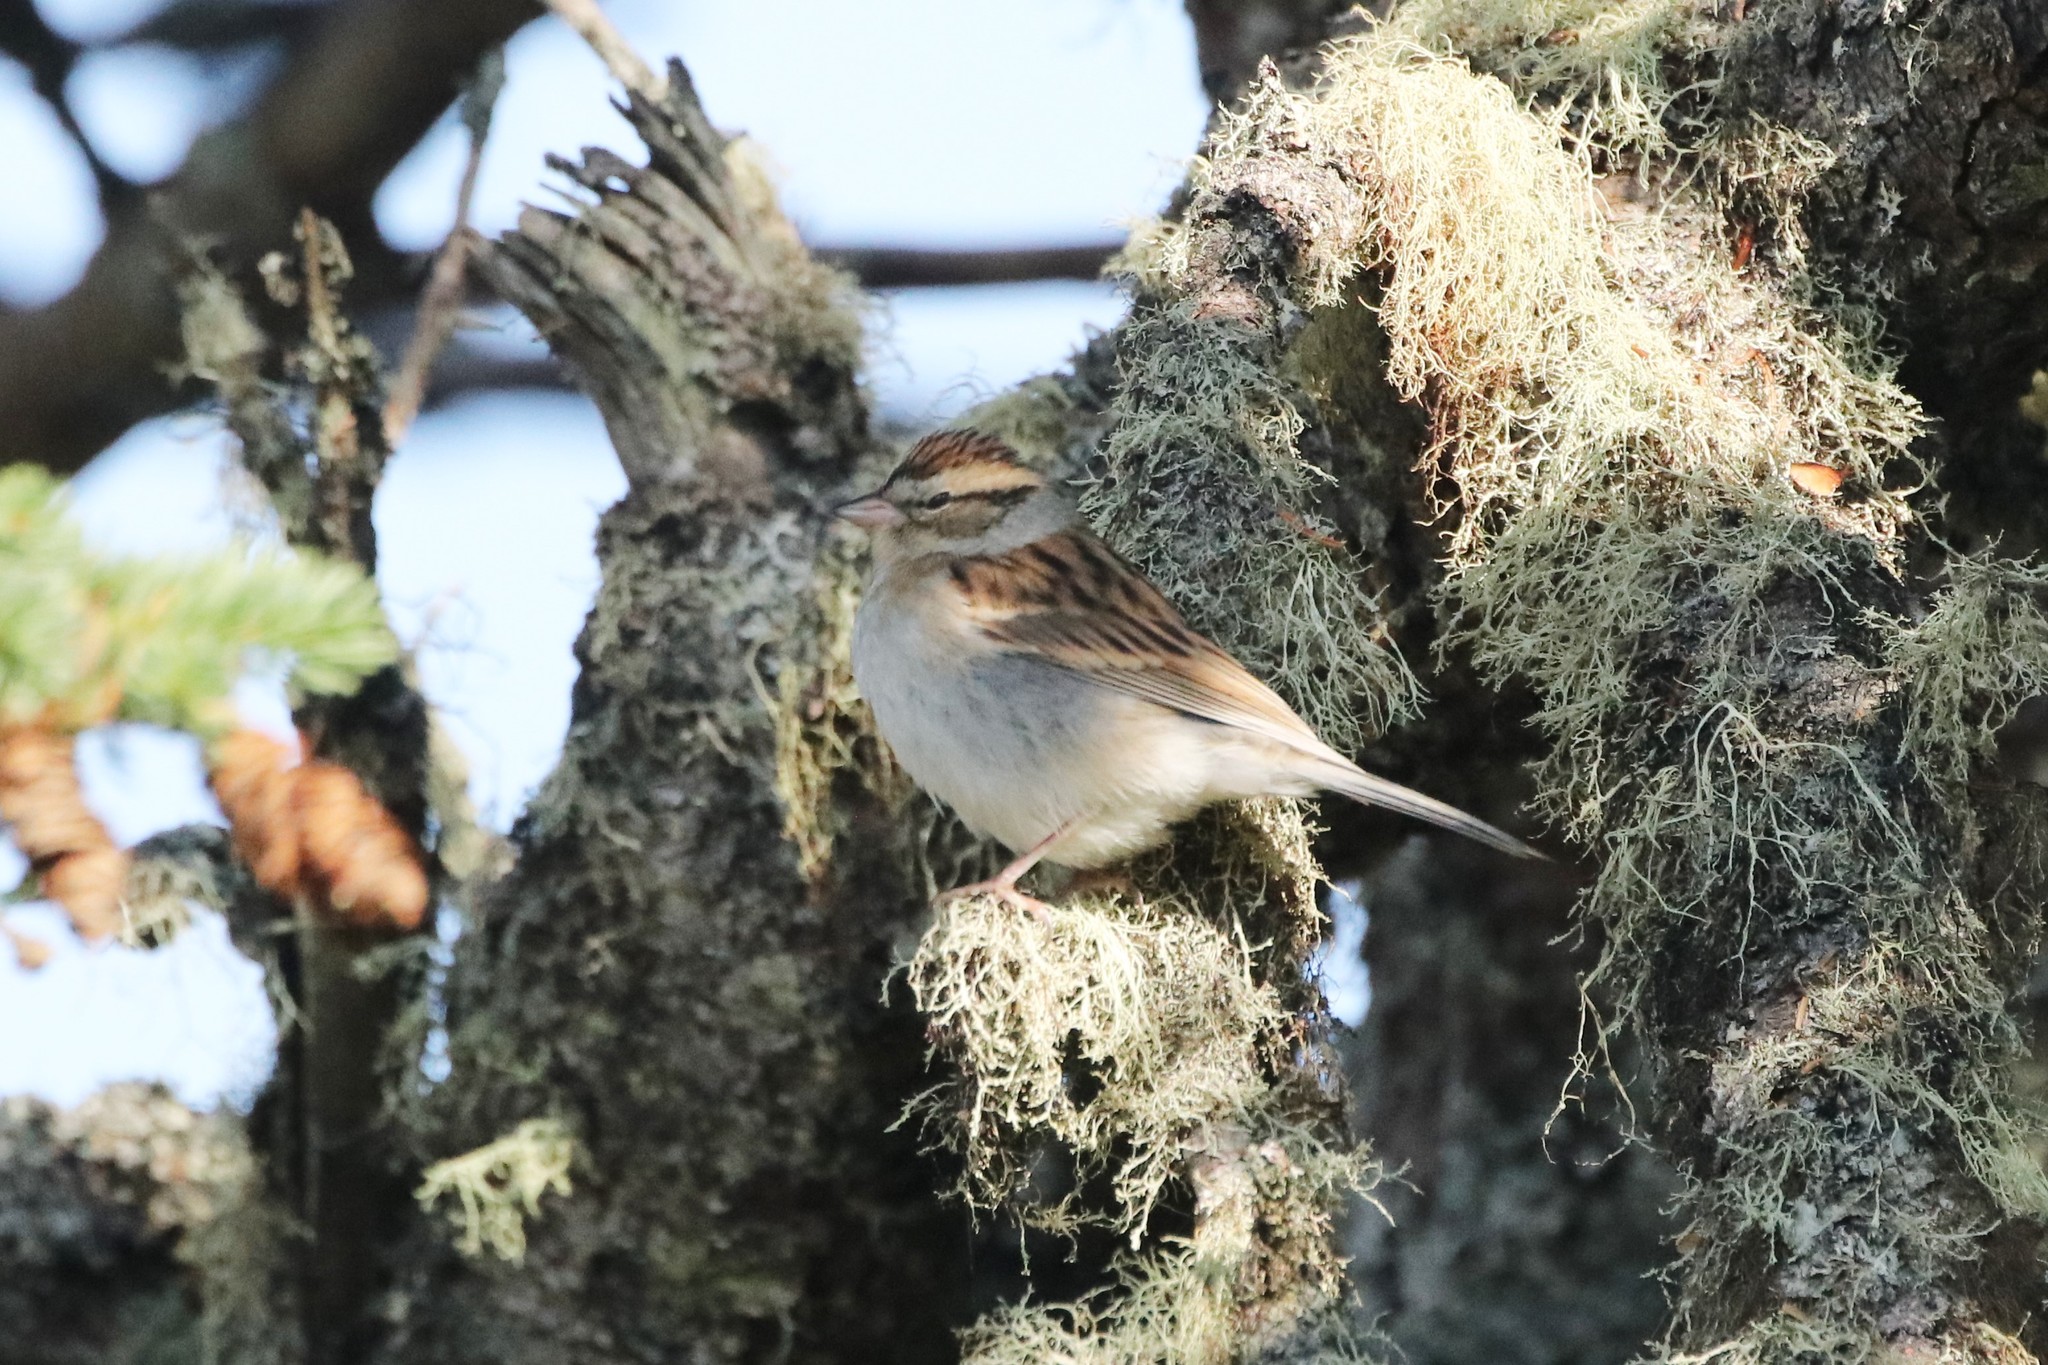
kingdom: Animalia
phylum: Chordata
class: Aves
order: Passeriformes
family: Passerellidae
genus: Spizella
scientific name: Spizella passerina
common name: Chipping sparrow
